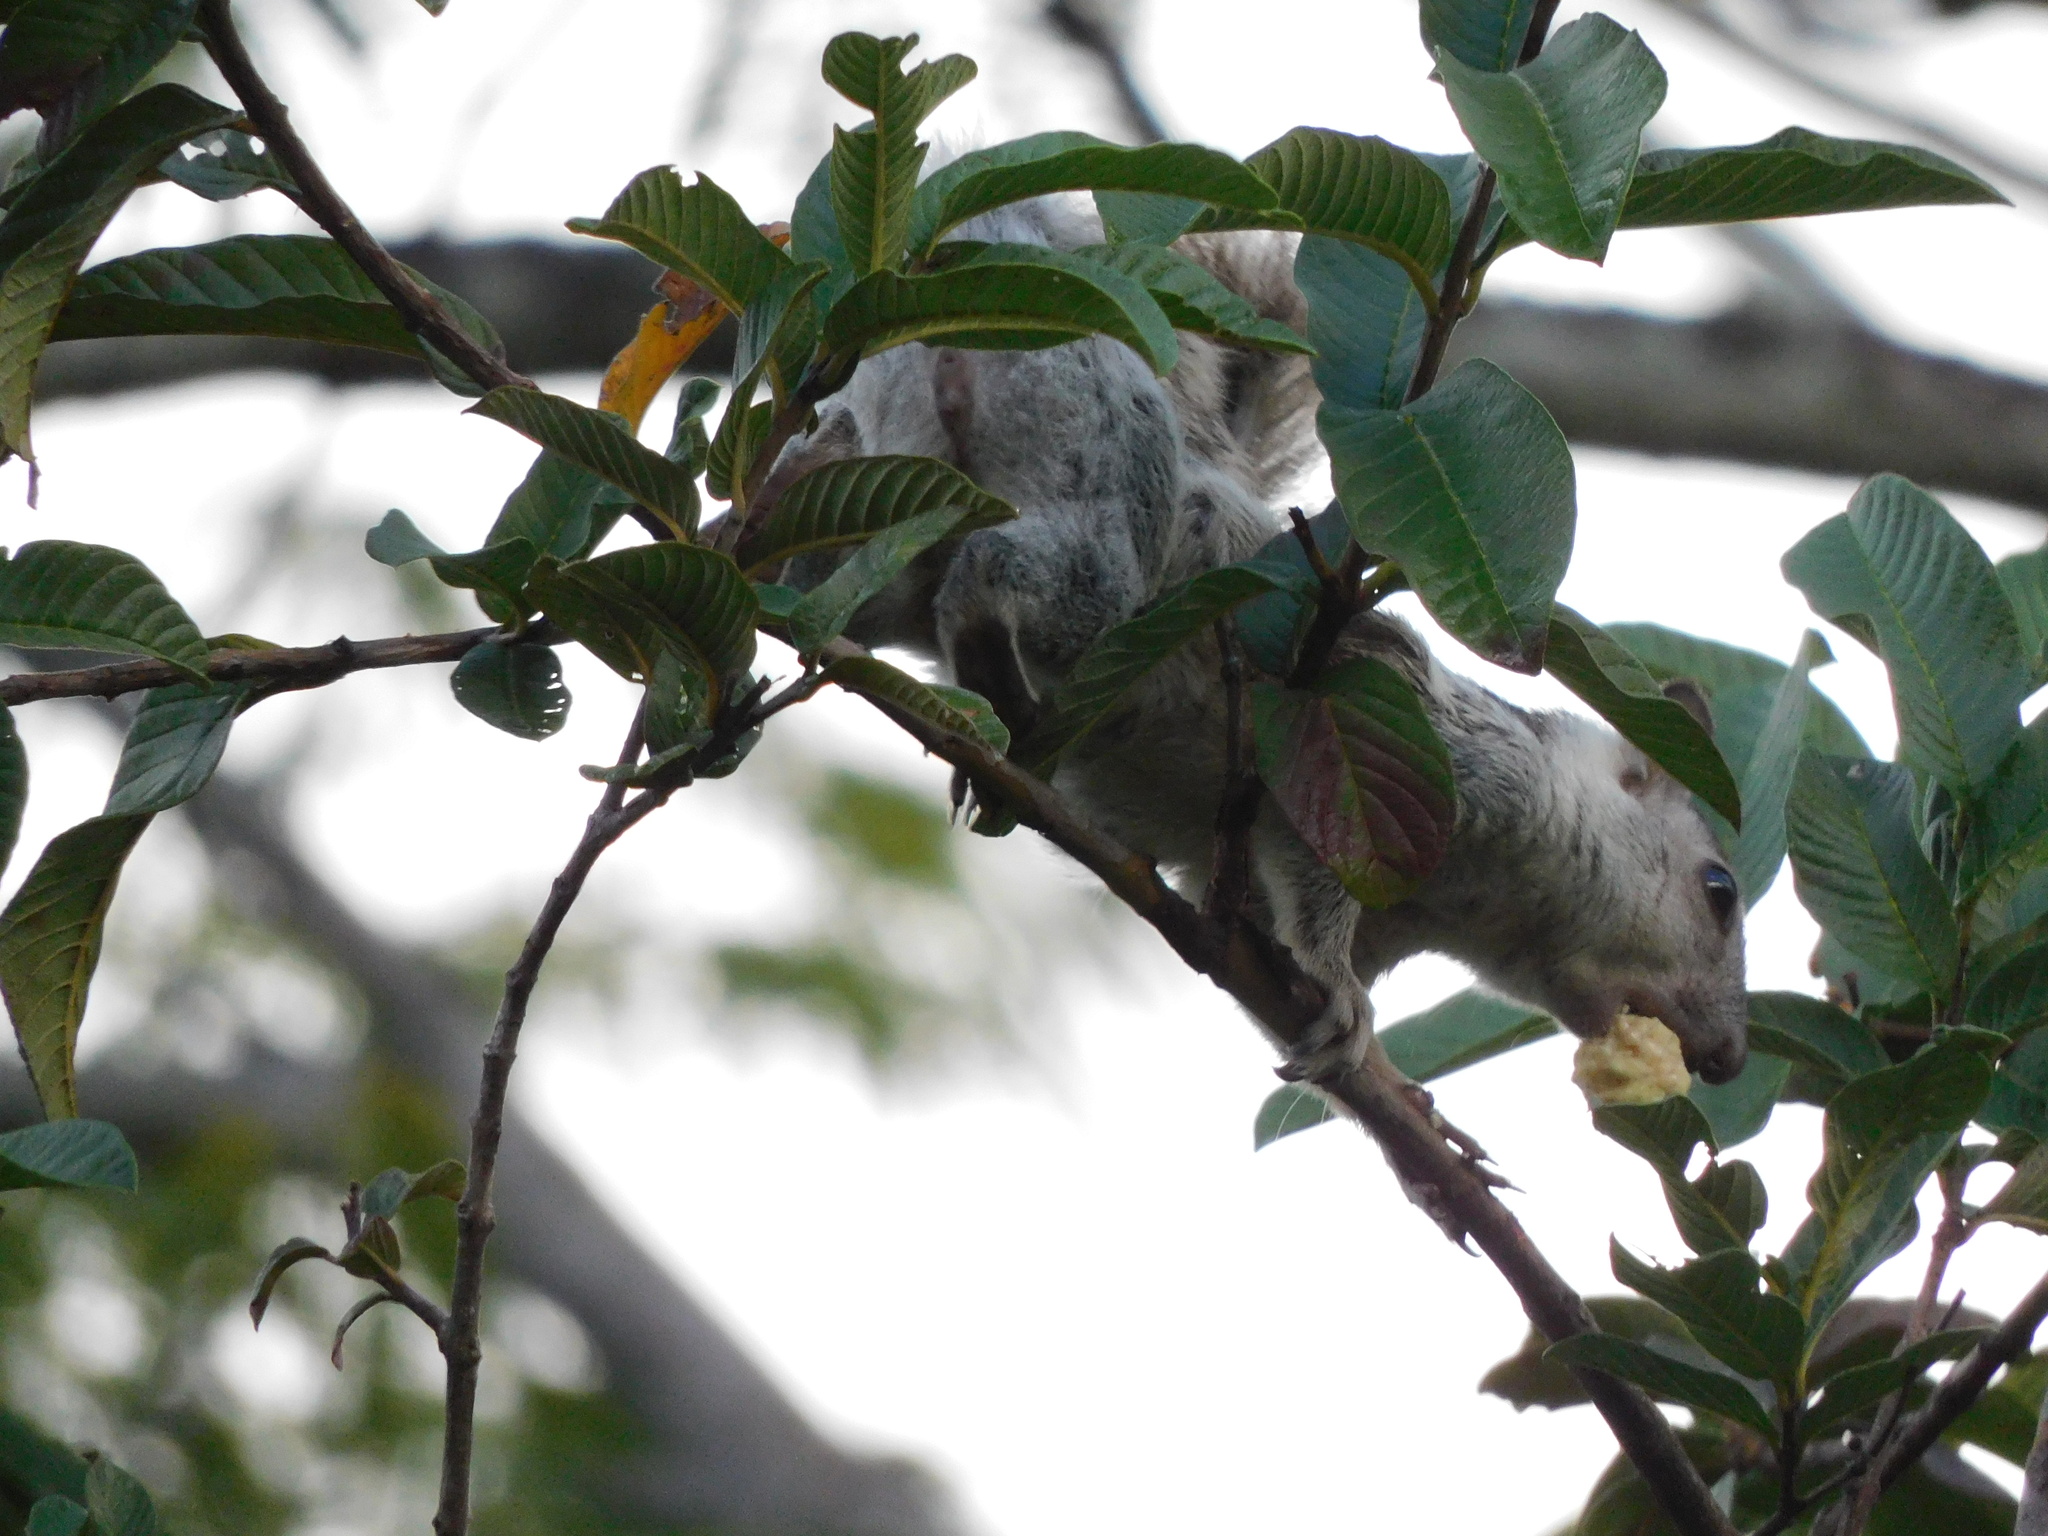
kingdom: Animalia
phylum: Chordata
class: Mammalia
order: Rodentia
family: Sciuridae
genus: Sciurus
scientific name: Sciurus variegatoides
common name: Variegated squirrel
